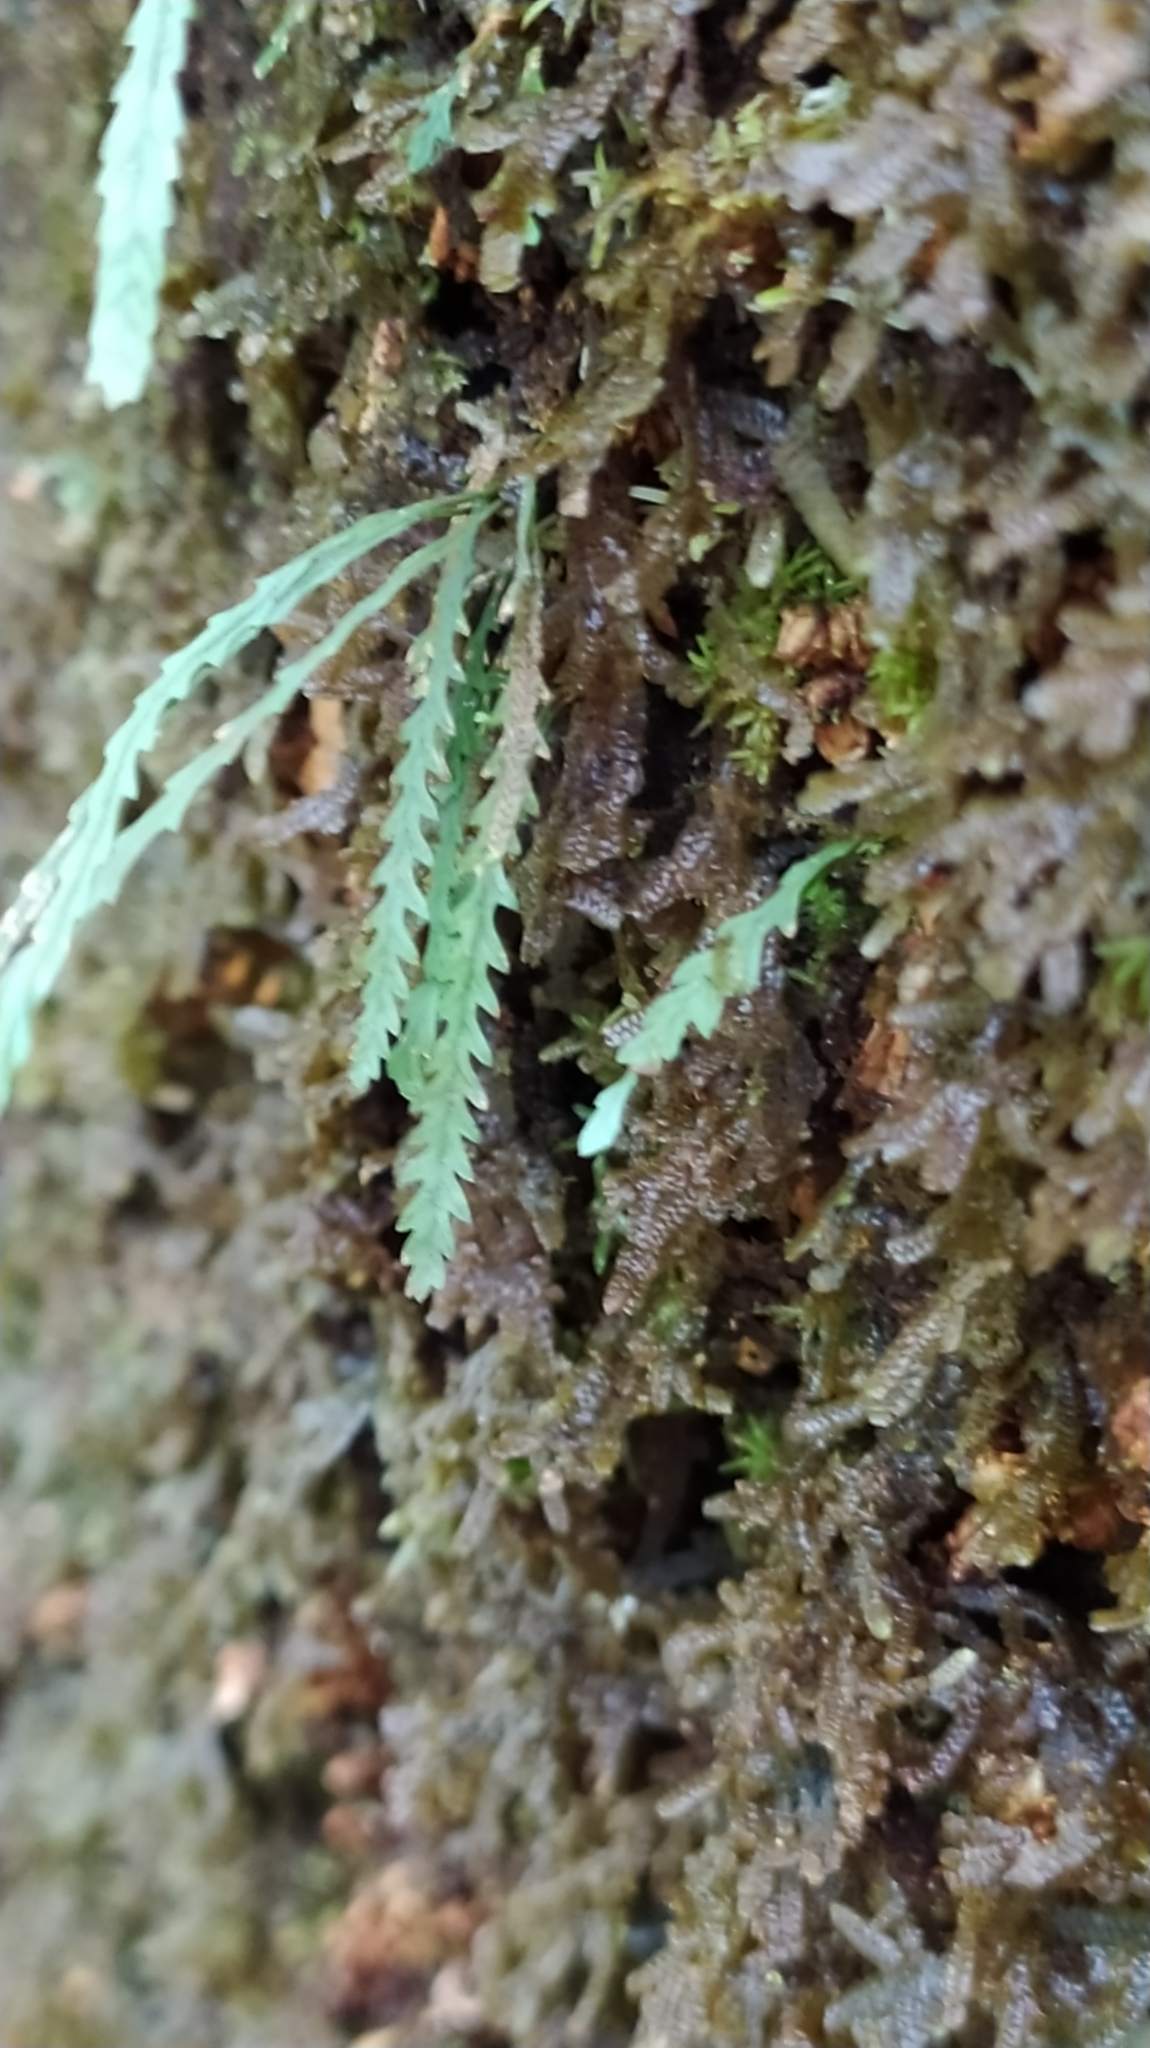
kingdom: Plantae
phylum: Tracheophyta
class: Polypodiopsida
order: Polypodiales
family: Polypodiaceae
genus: Cochlidium
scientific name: Cochlidium serrulatum
